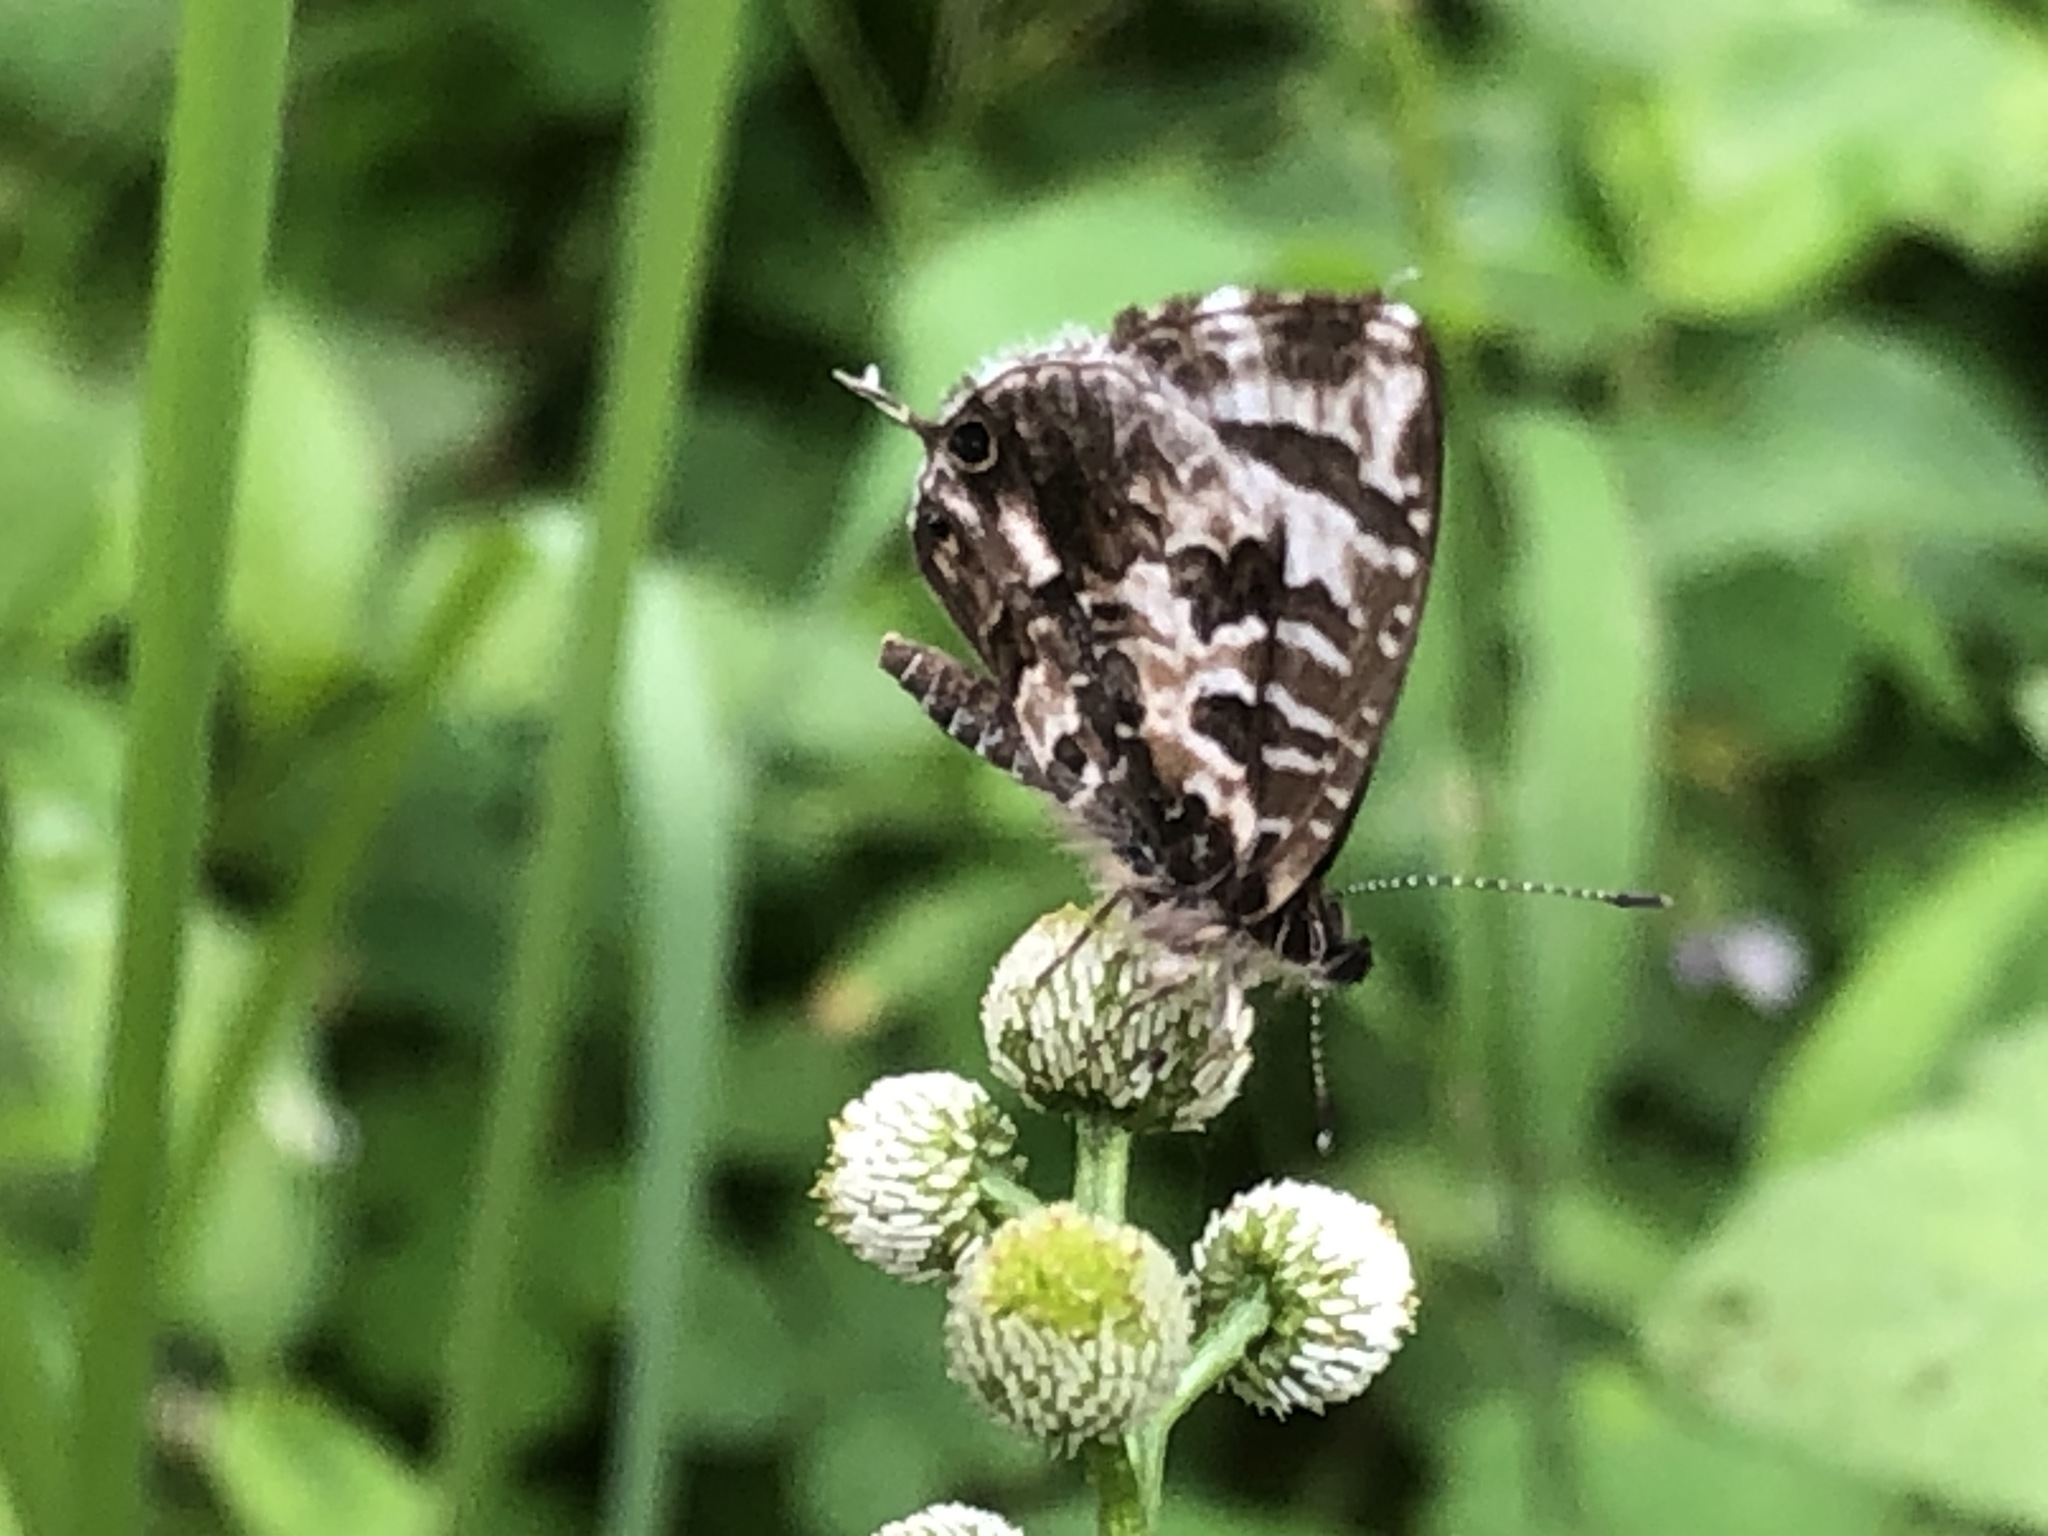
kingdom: Animalia
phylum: Arthropoda
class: Insecta
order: Lepidoptera
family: Lycaenidae
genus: Cacyreus
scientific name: Cacyreus lingeus
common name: Bush bronze
